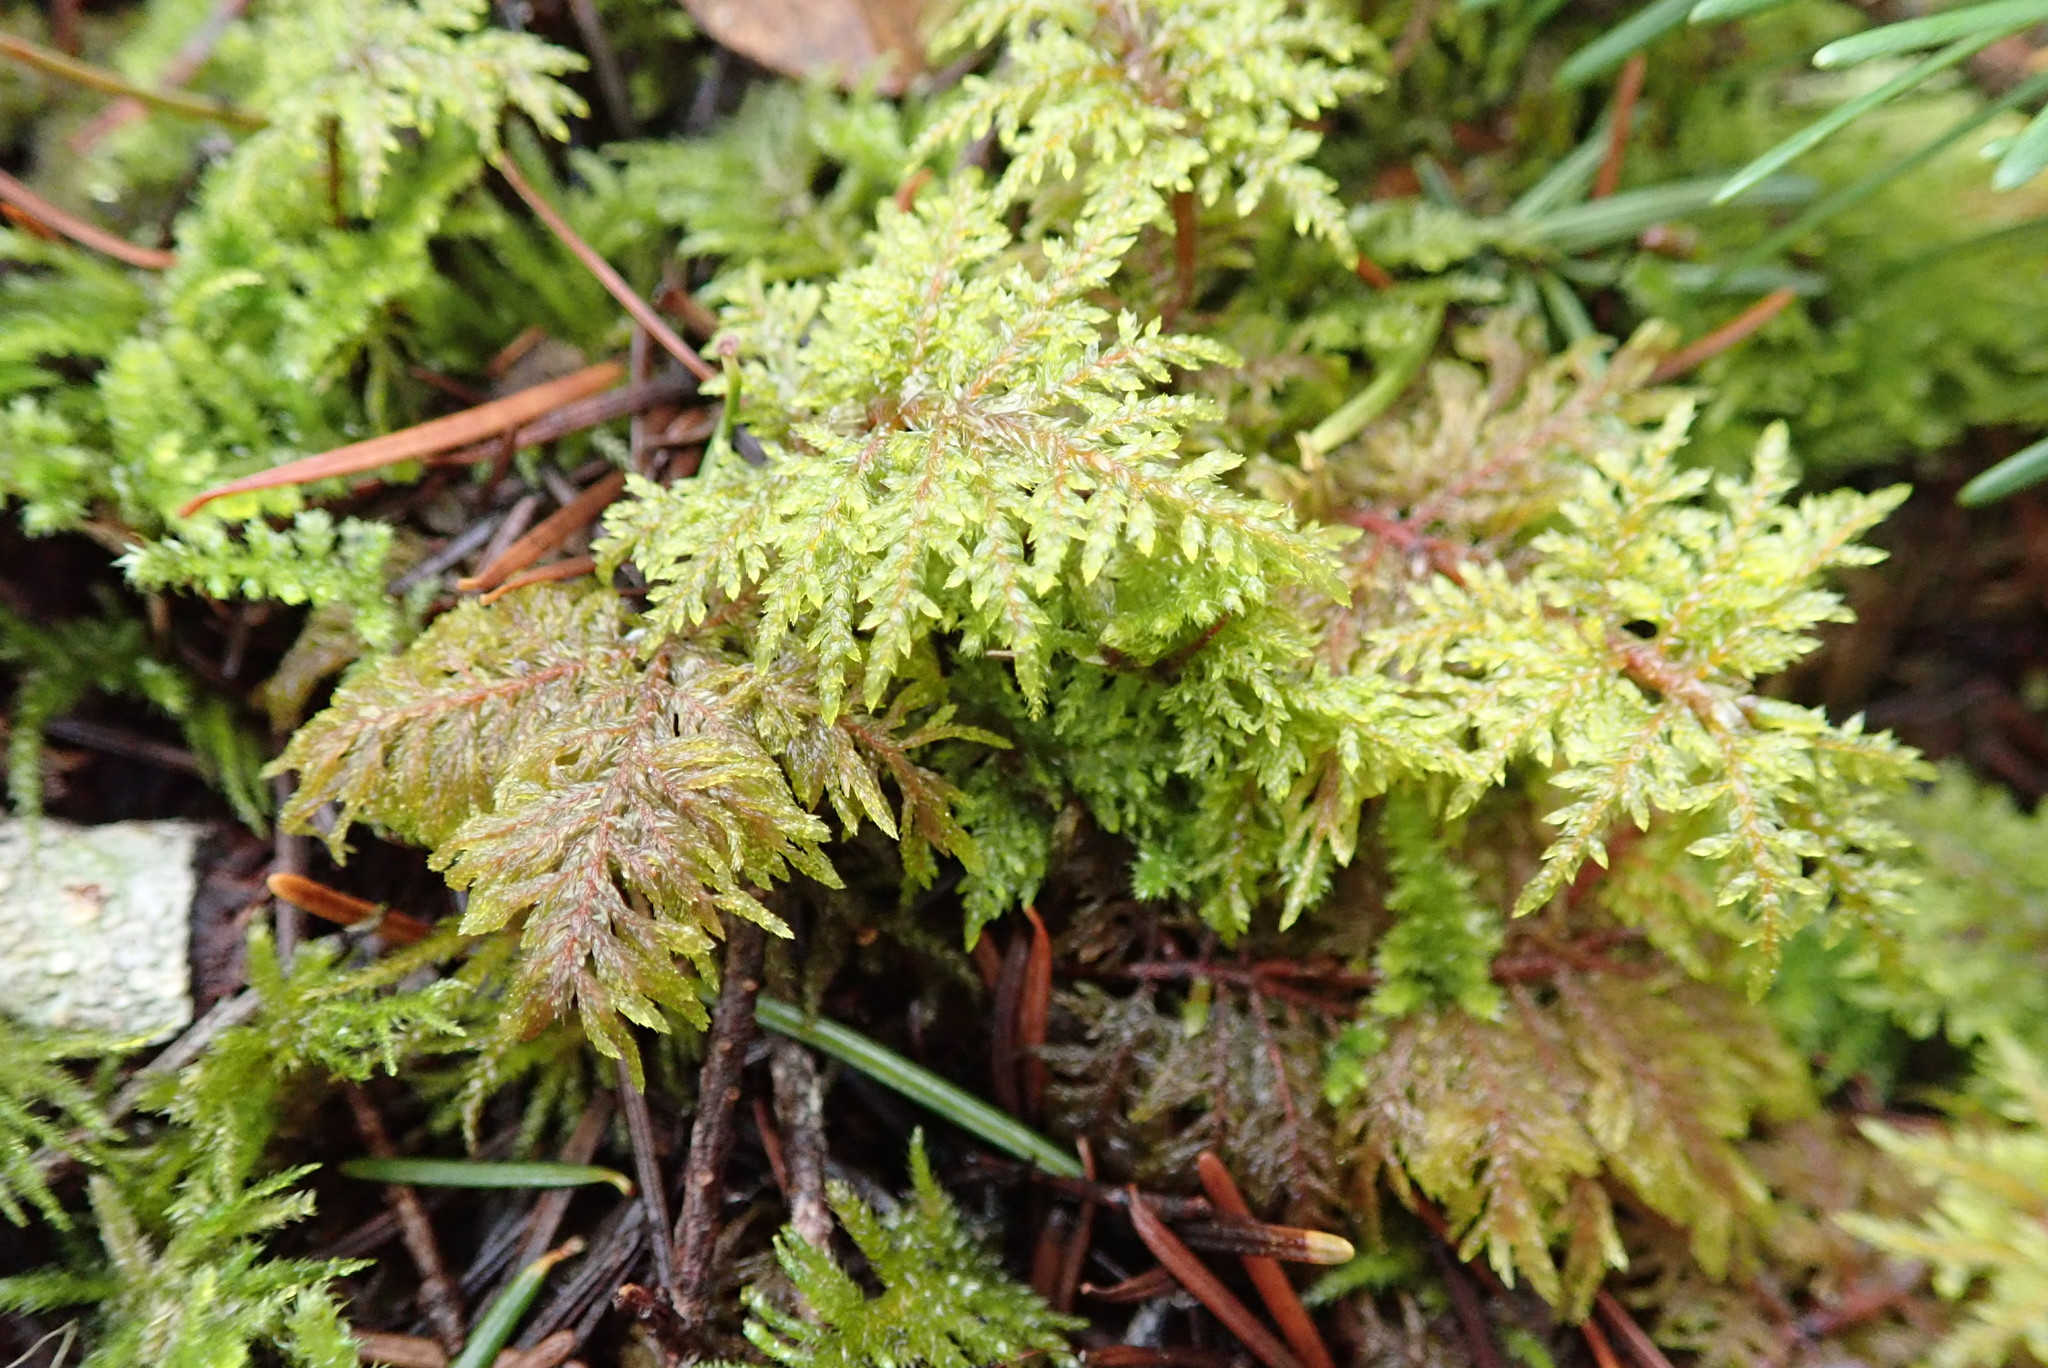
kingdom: Plantae
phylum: Bryophyta
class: Bryopsida
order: Hypnales
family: Hylocomiaceae
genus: Hylocomium
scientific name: Hylocomium splendens
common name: Stairstep moss
